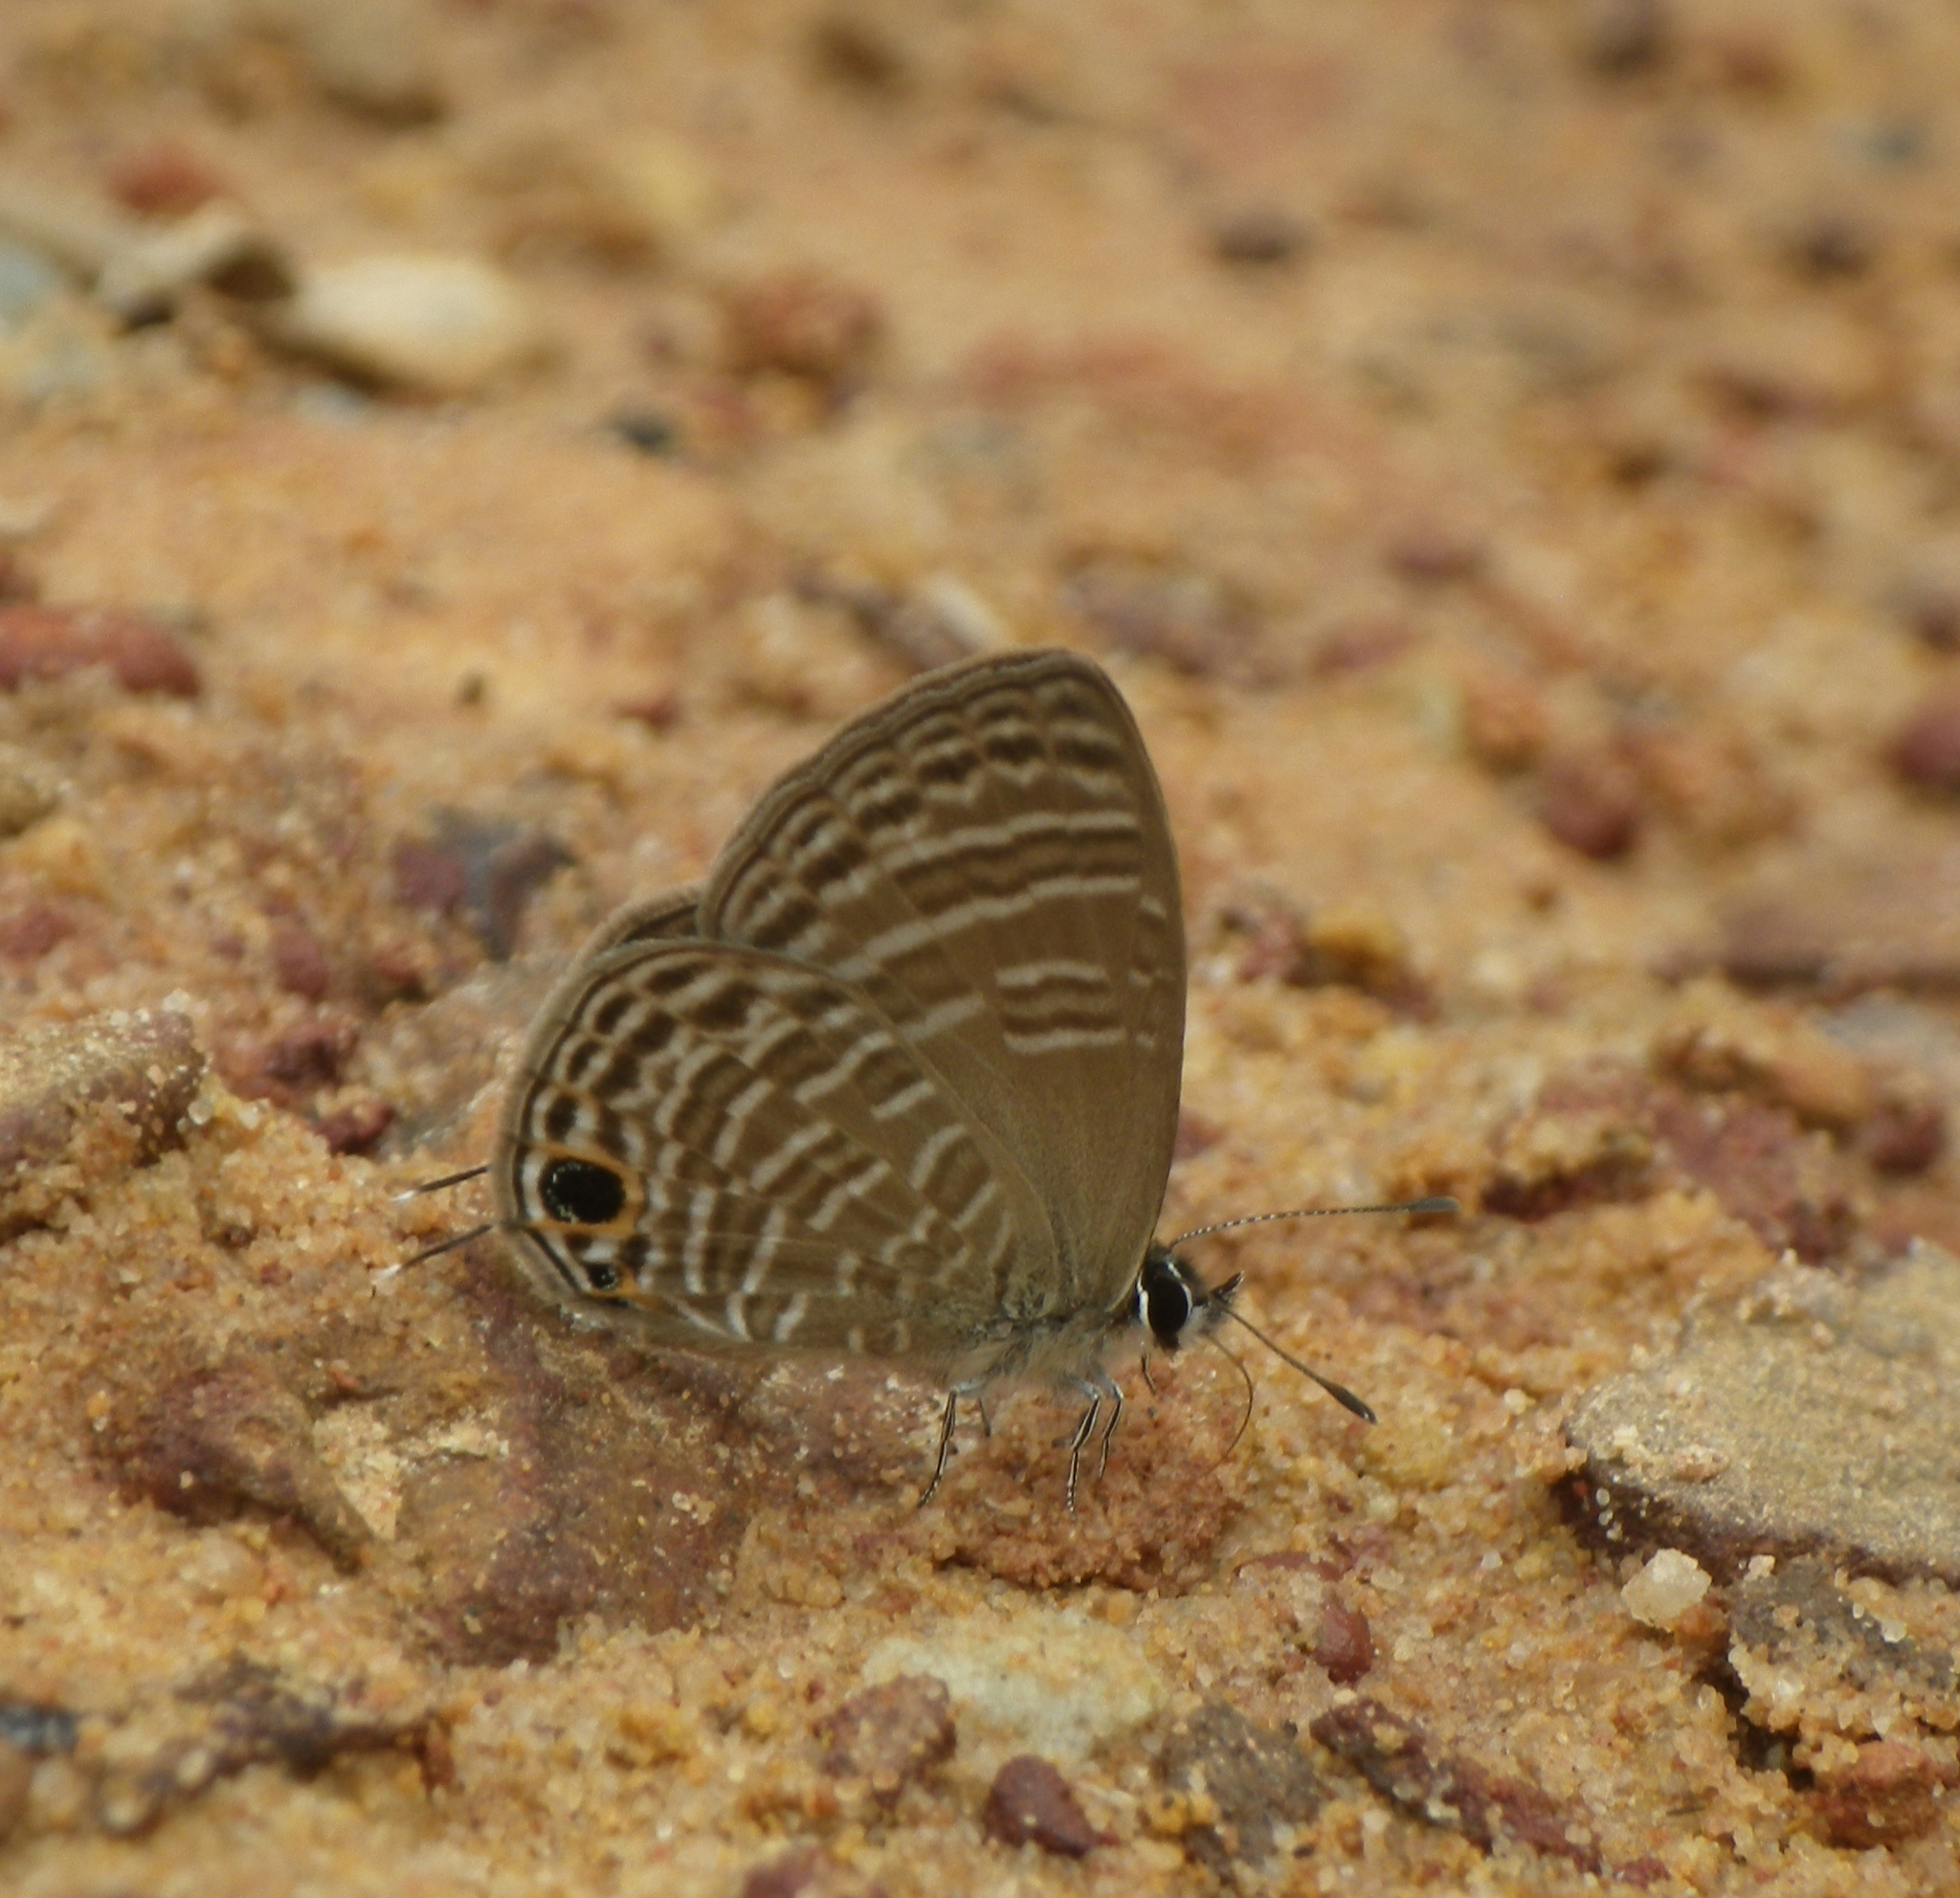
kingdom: Animalia
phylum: Arthropoda
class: Insecta
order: Lepidoptera
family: Lycaenidae
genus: Nacaduba
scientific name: Nacaduba pavana
